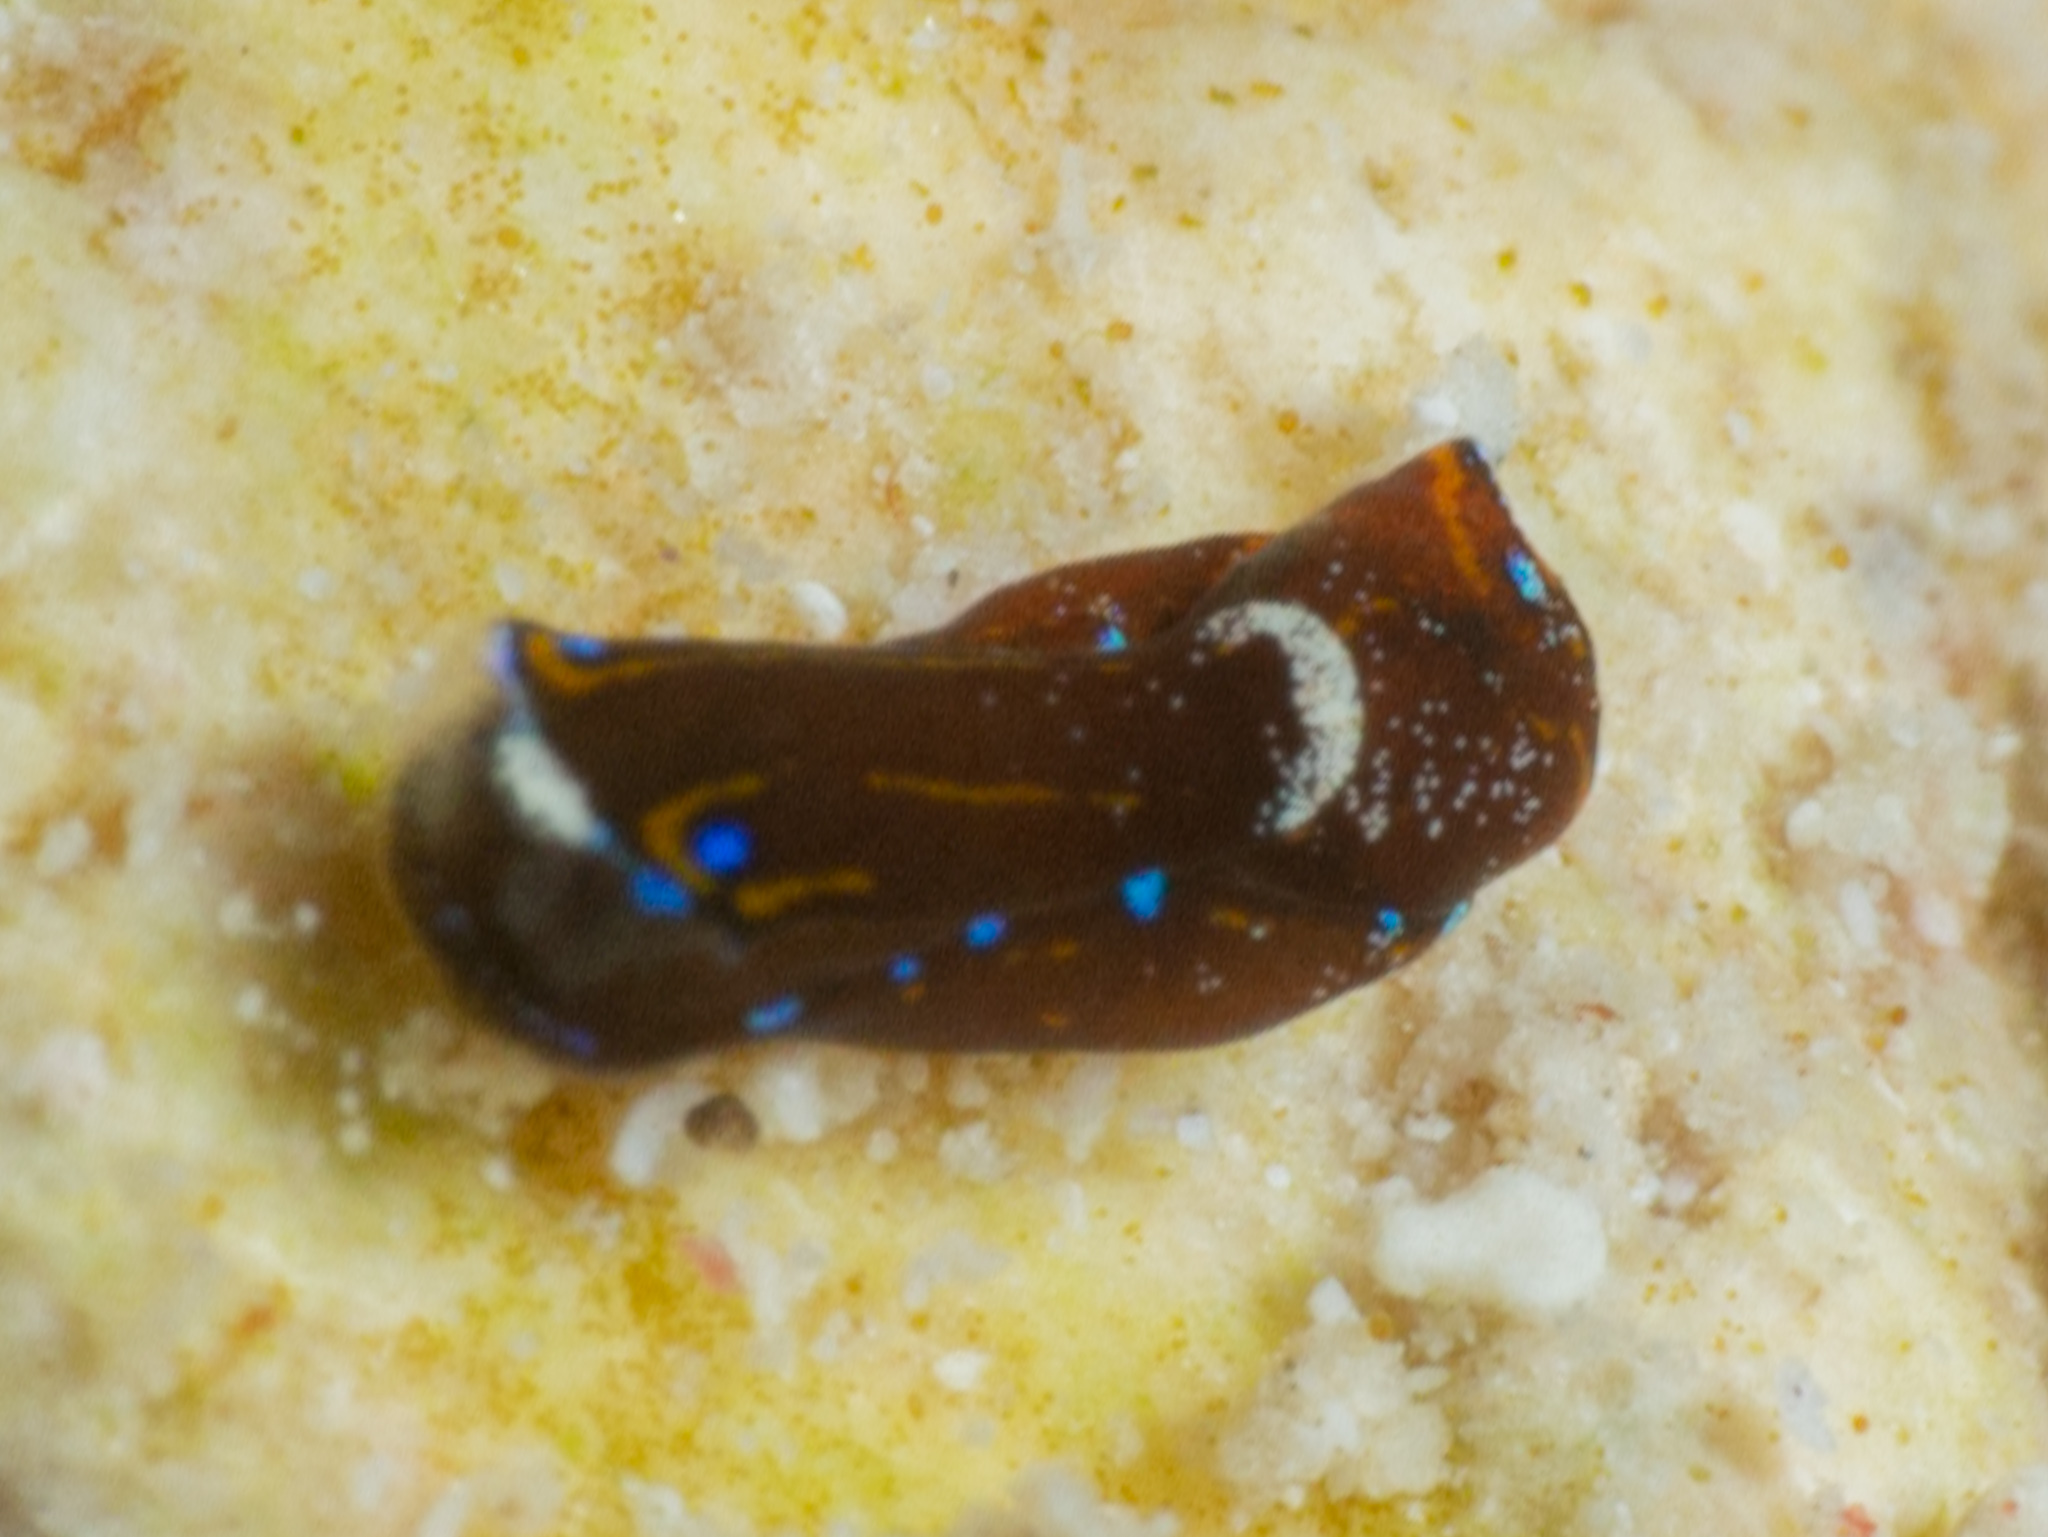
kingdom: Animalia
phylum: Mollusca
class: Gastropoda
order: Cephalaspidea
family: Aglajidae
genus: Chelidonura
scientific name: Chelidonura cubana
